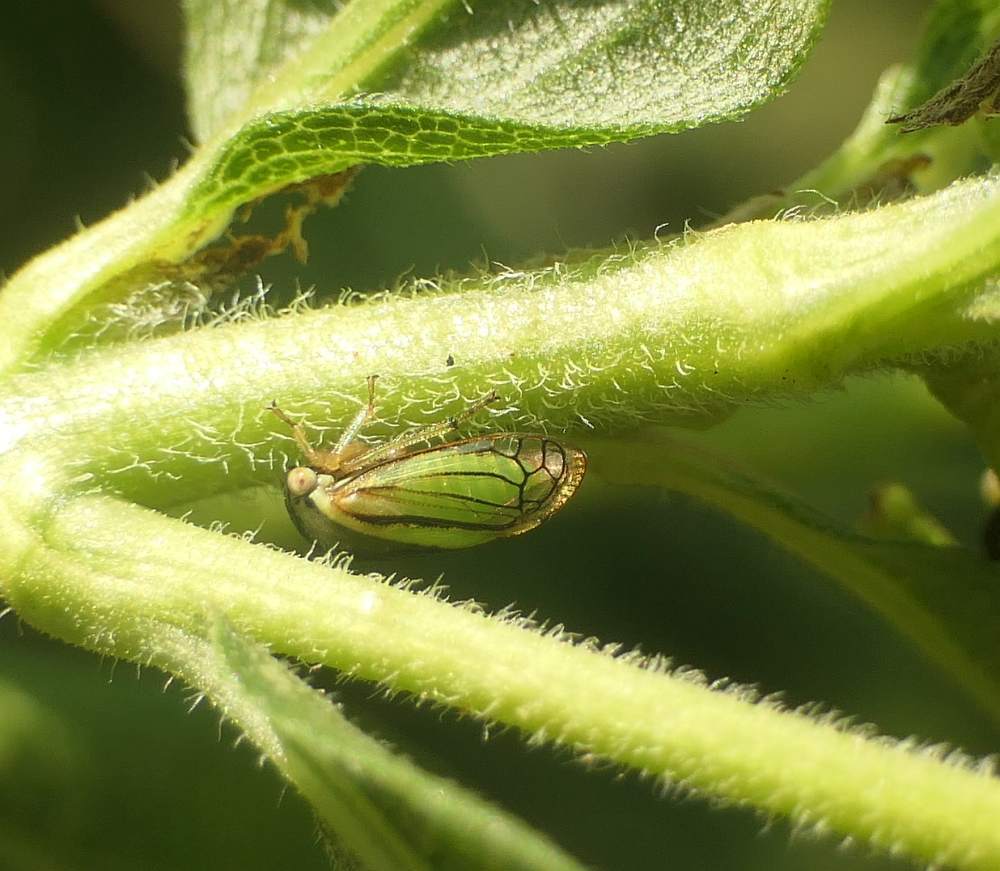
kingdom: Animalia
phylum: Arthropoda
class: Insecta
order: Hemiptera
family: Membracidae
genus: Acutalis
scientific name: Acutalis tartarea
